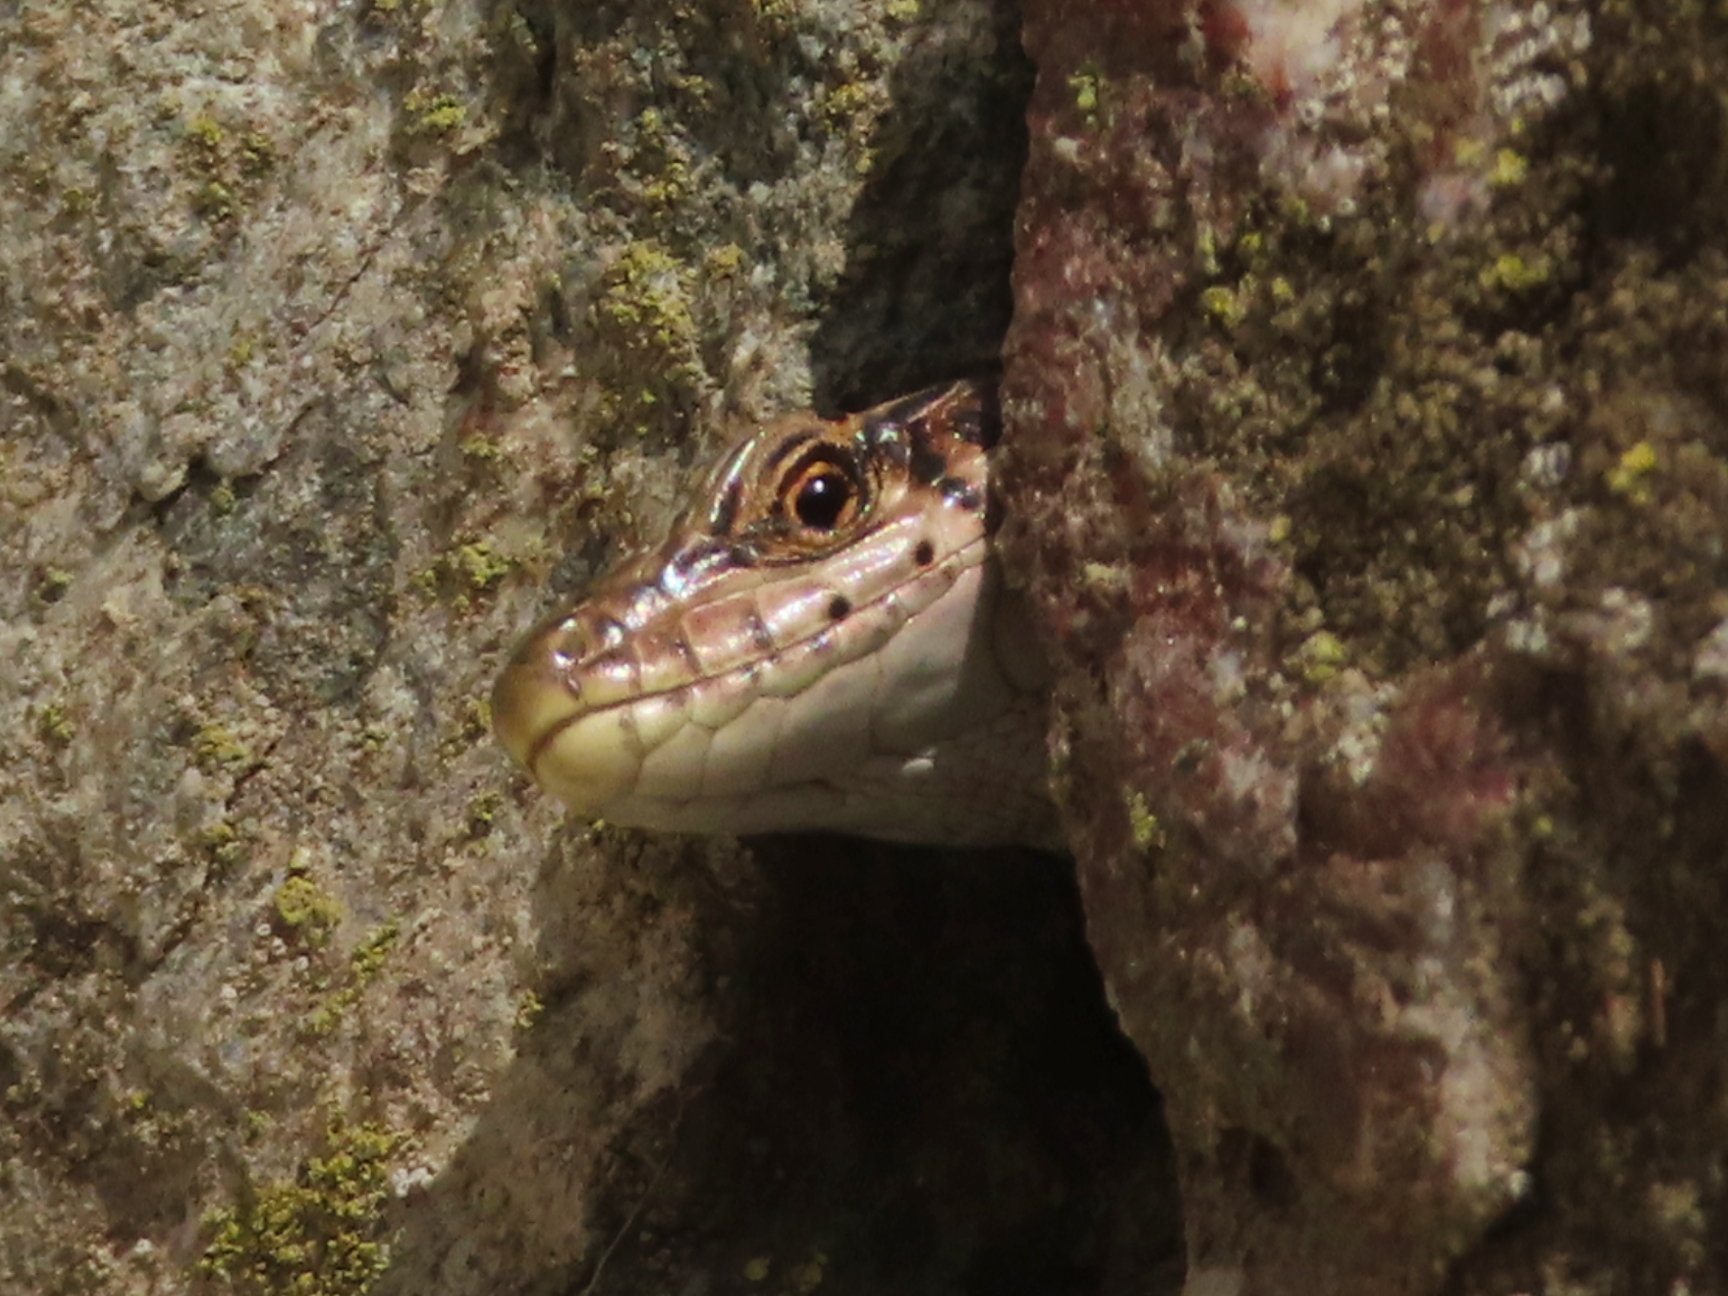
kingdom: Animalia
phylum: Chordata
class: Squamata
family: Lacertidae
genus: Darevskia
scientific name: Darevskia armeniaca
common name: Armenian lizard
